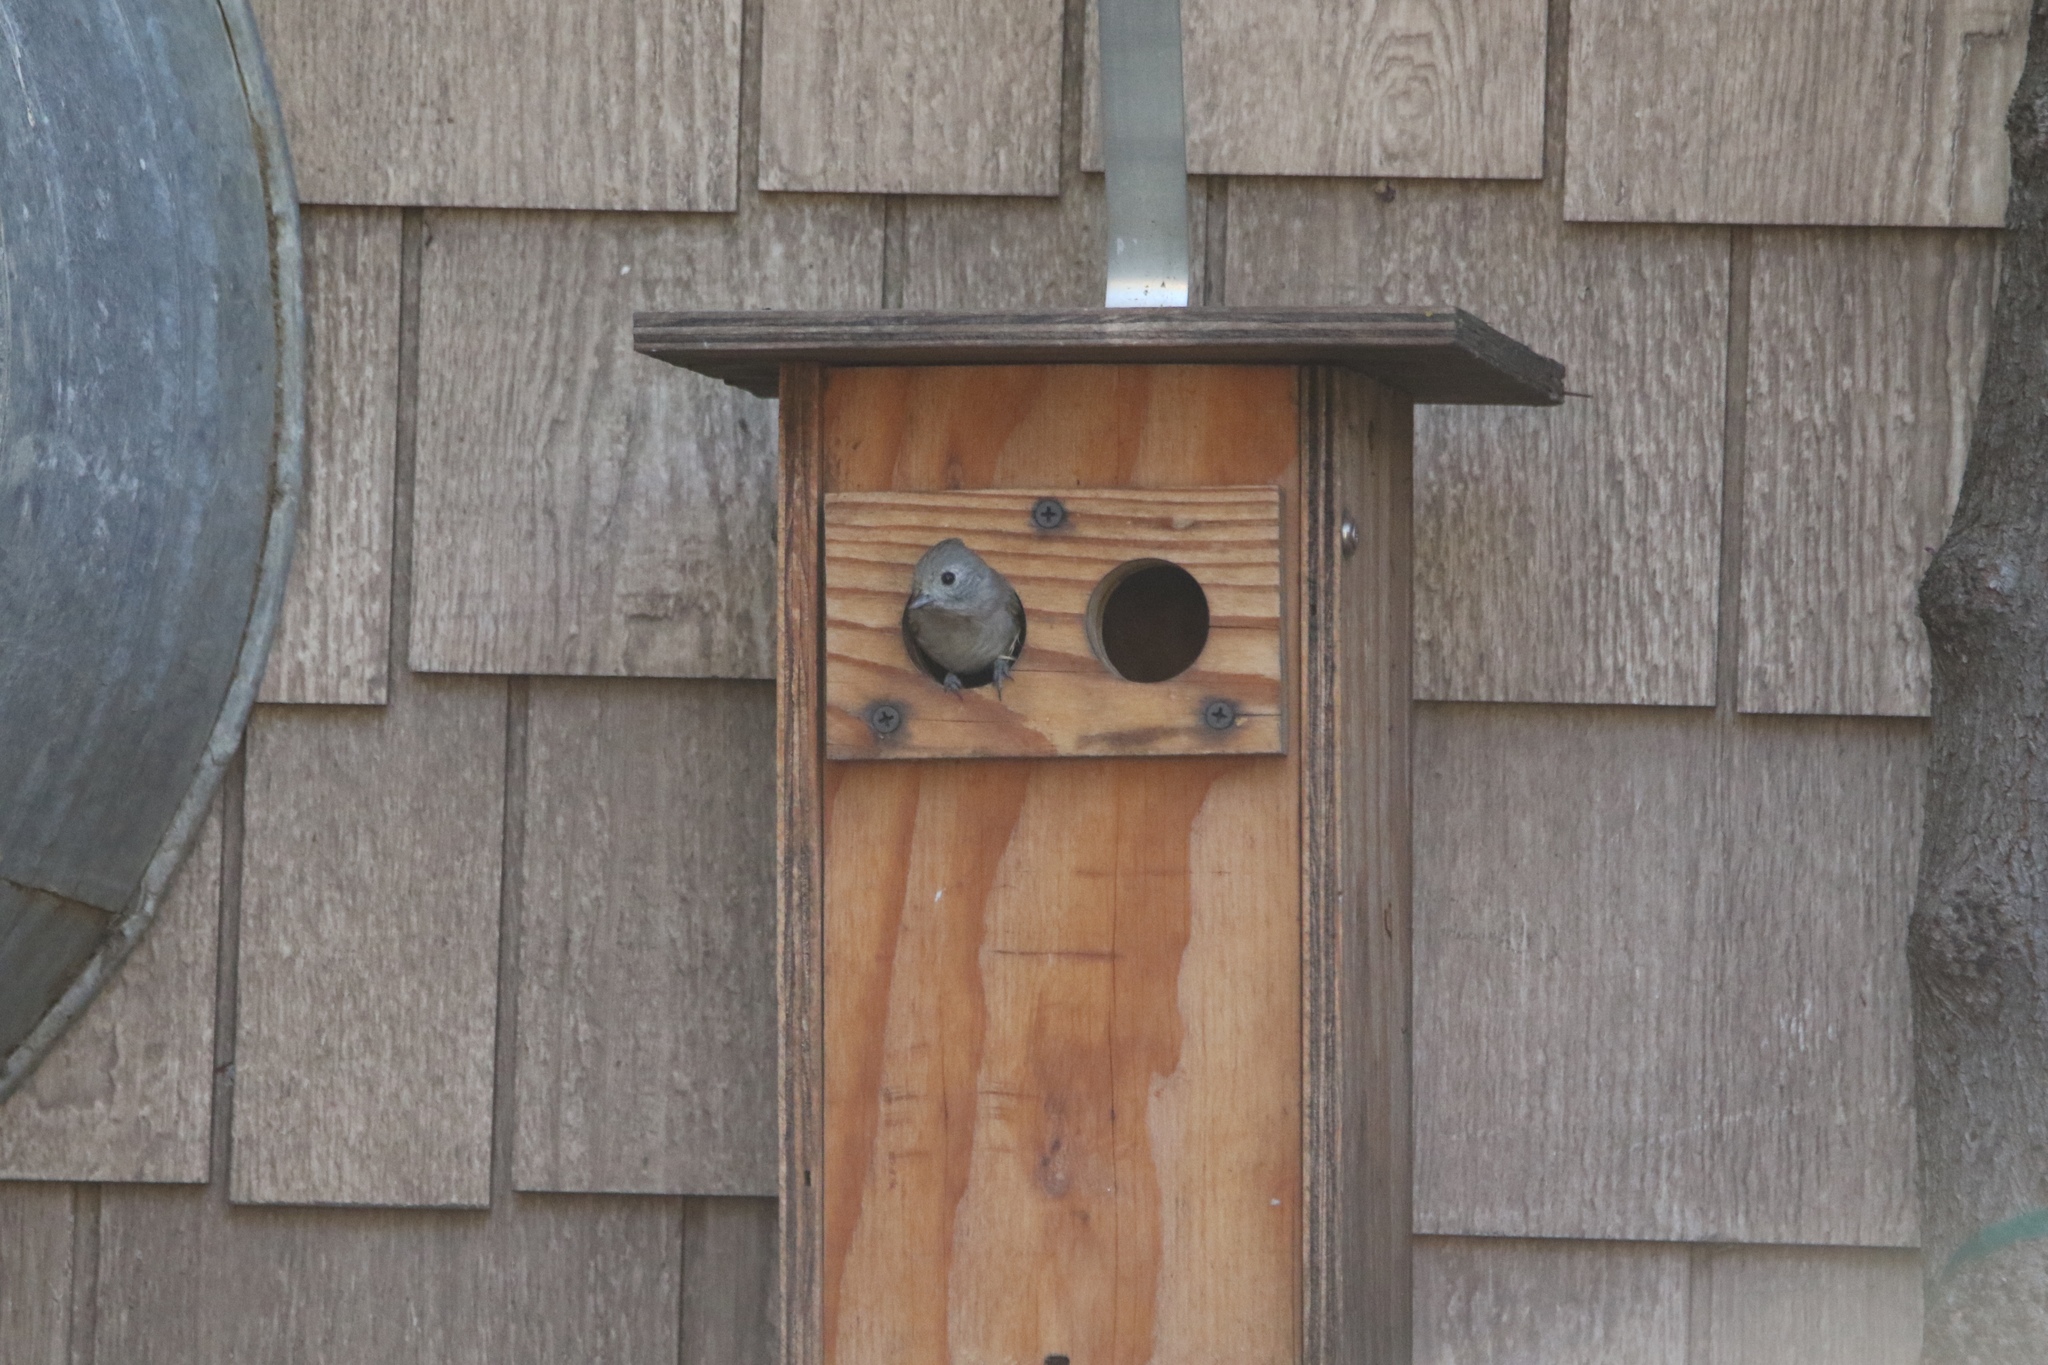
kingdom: Animalia
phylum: Chordata
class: Aves
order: Passeriformes
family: Paridae
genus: Baeolophus
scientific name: Baeolophus inornatus
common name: Oak titmouse
